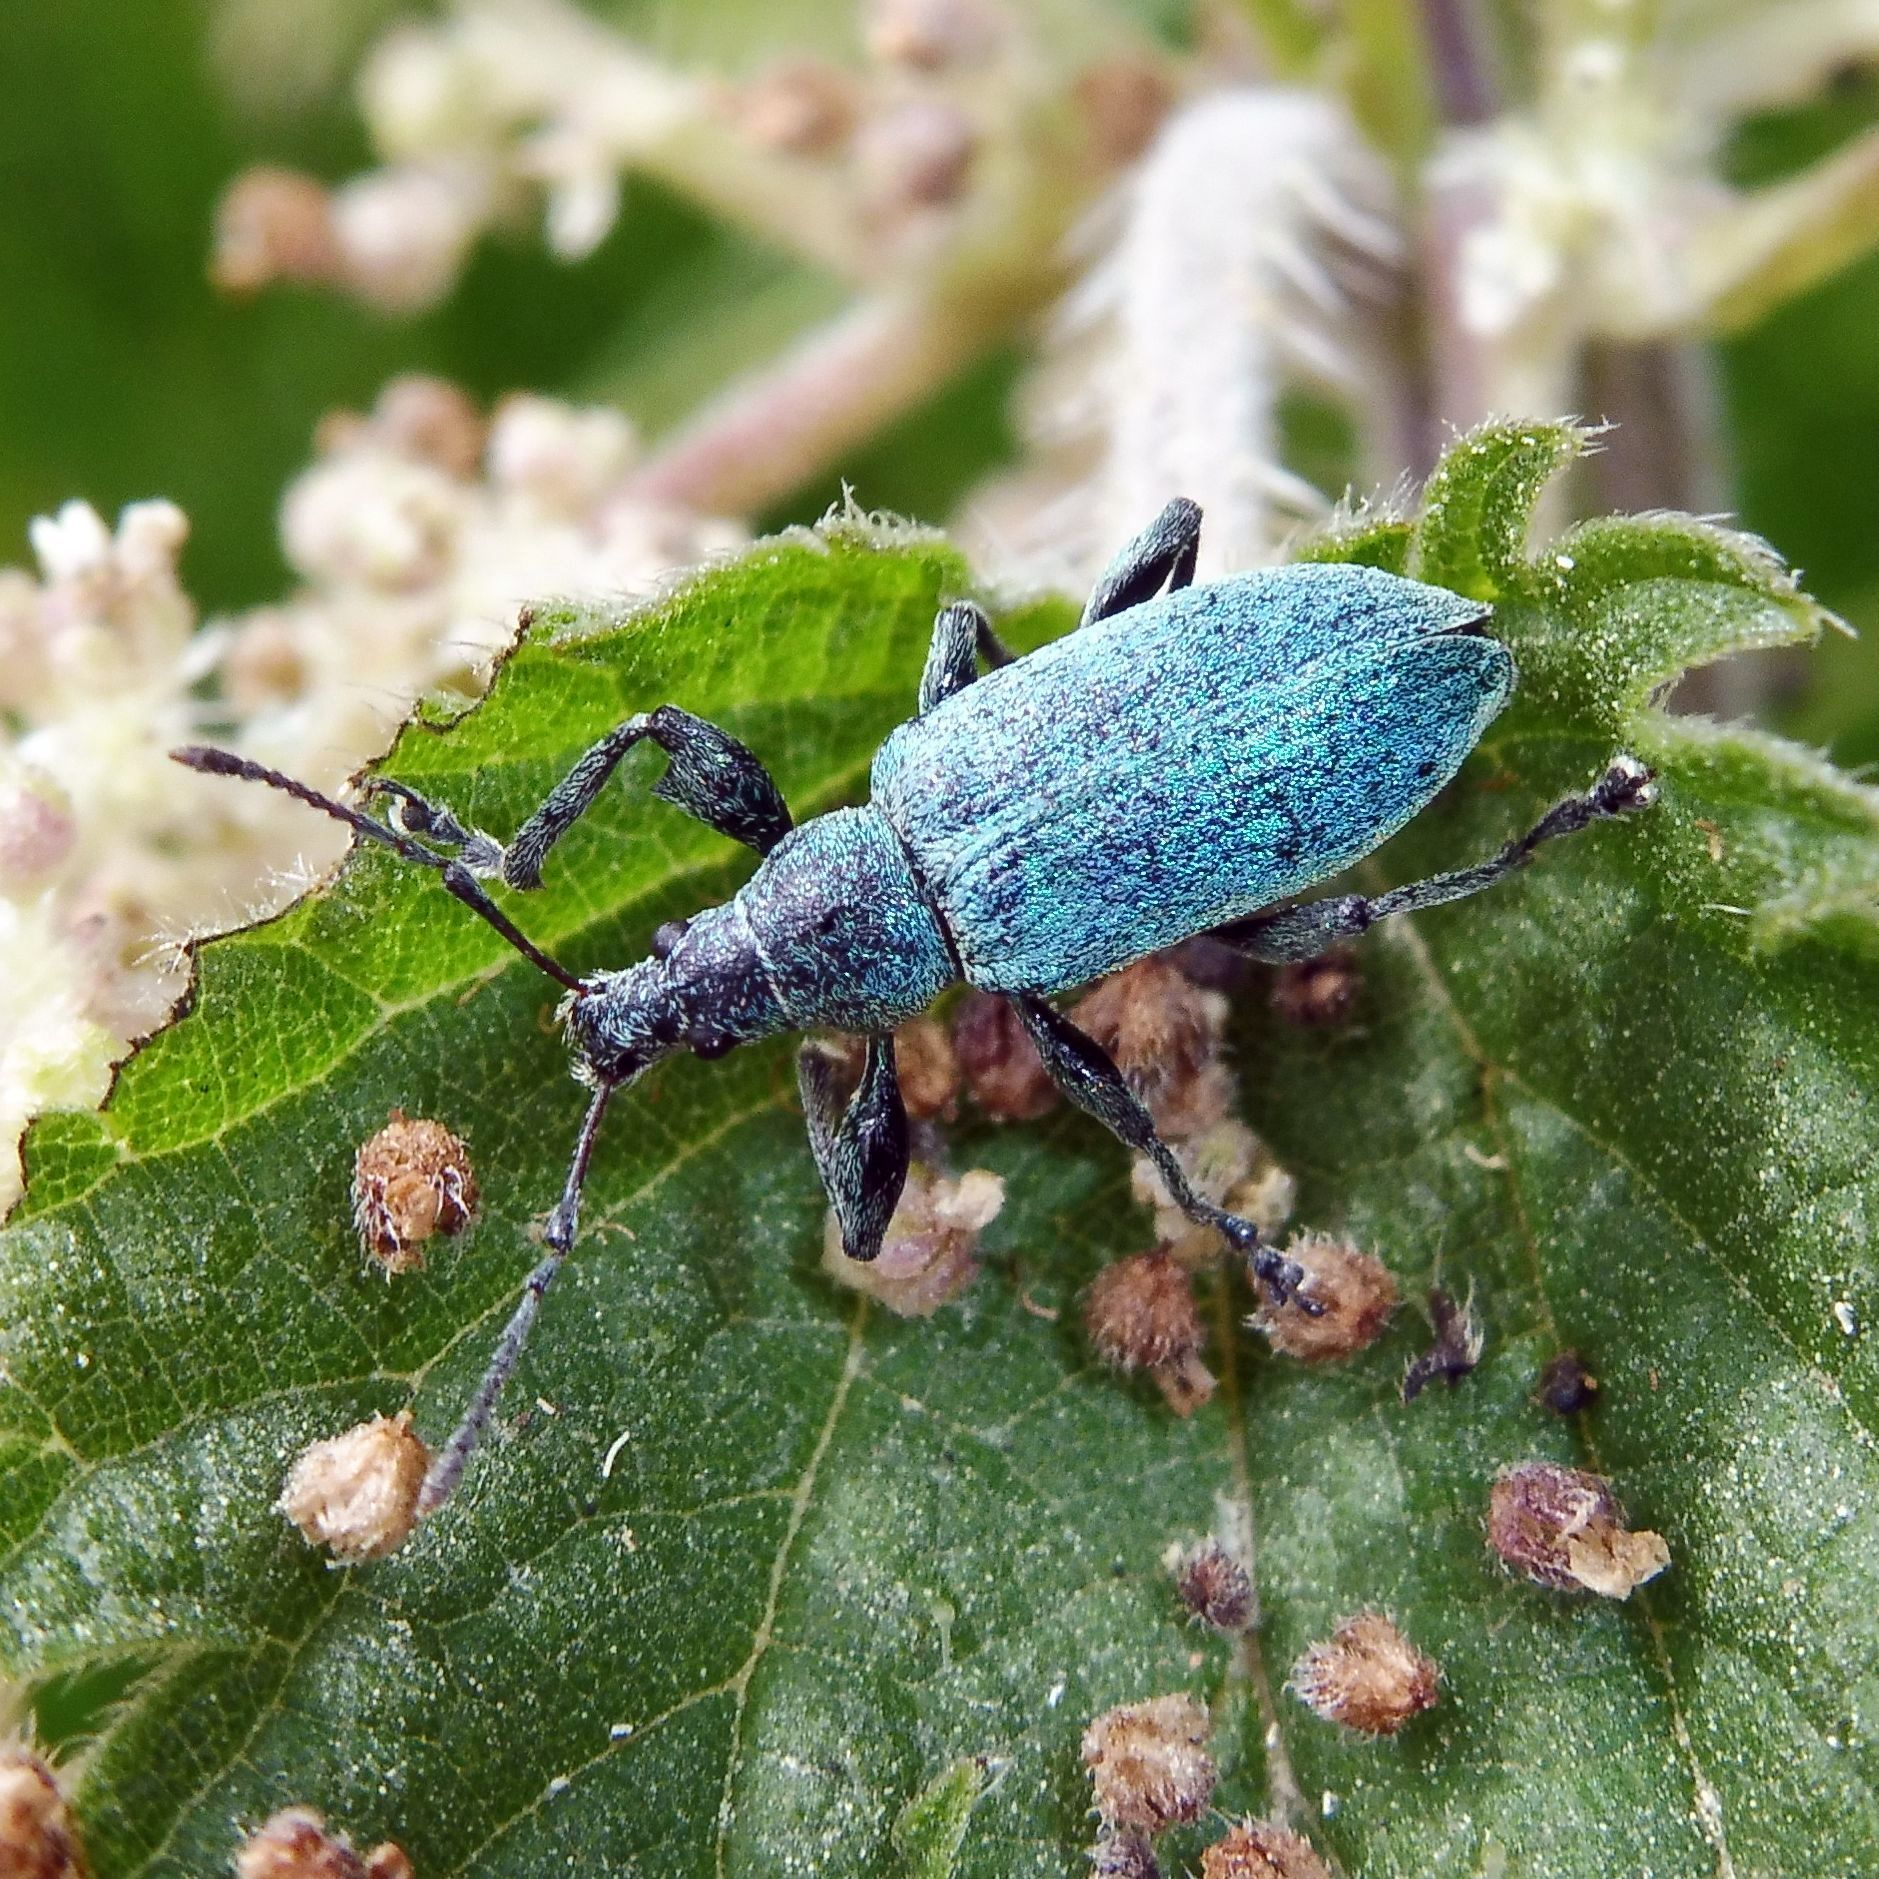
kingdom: Animalia
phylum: Arthropoda
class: Insecta
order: Coleoptera
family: Curculionidae
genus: Phyllobius
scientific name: Phyllobius pomaceus
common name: Green nettle weevil
